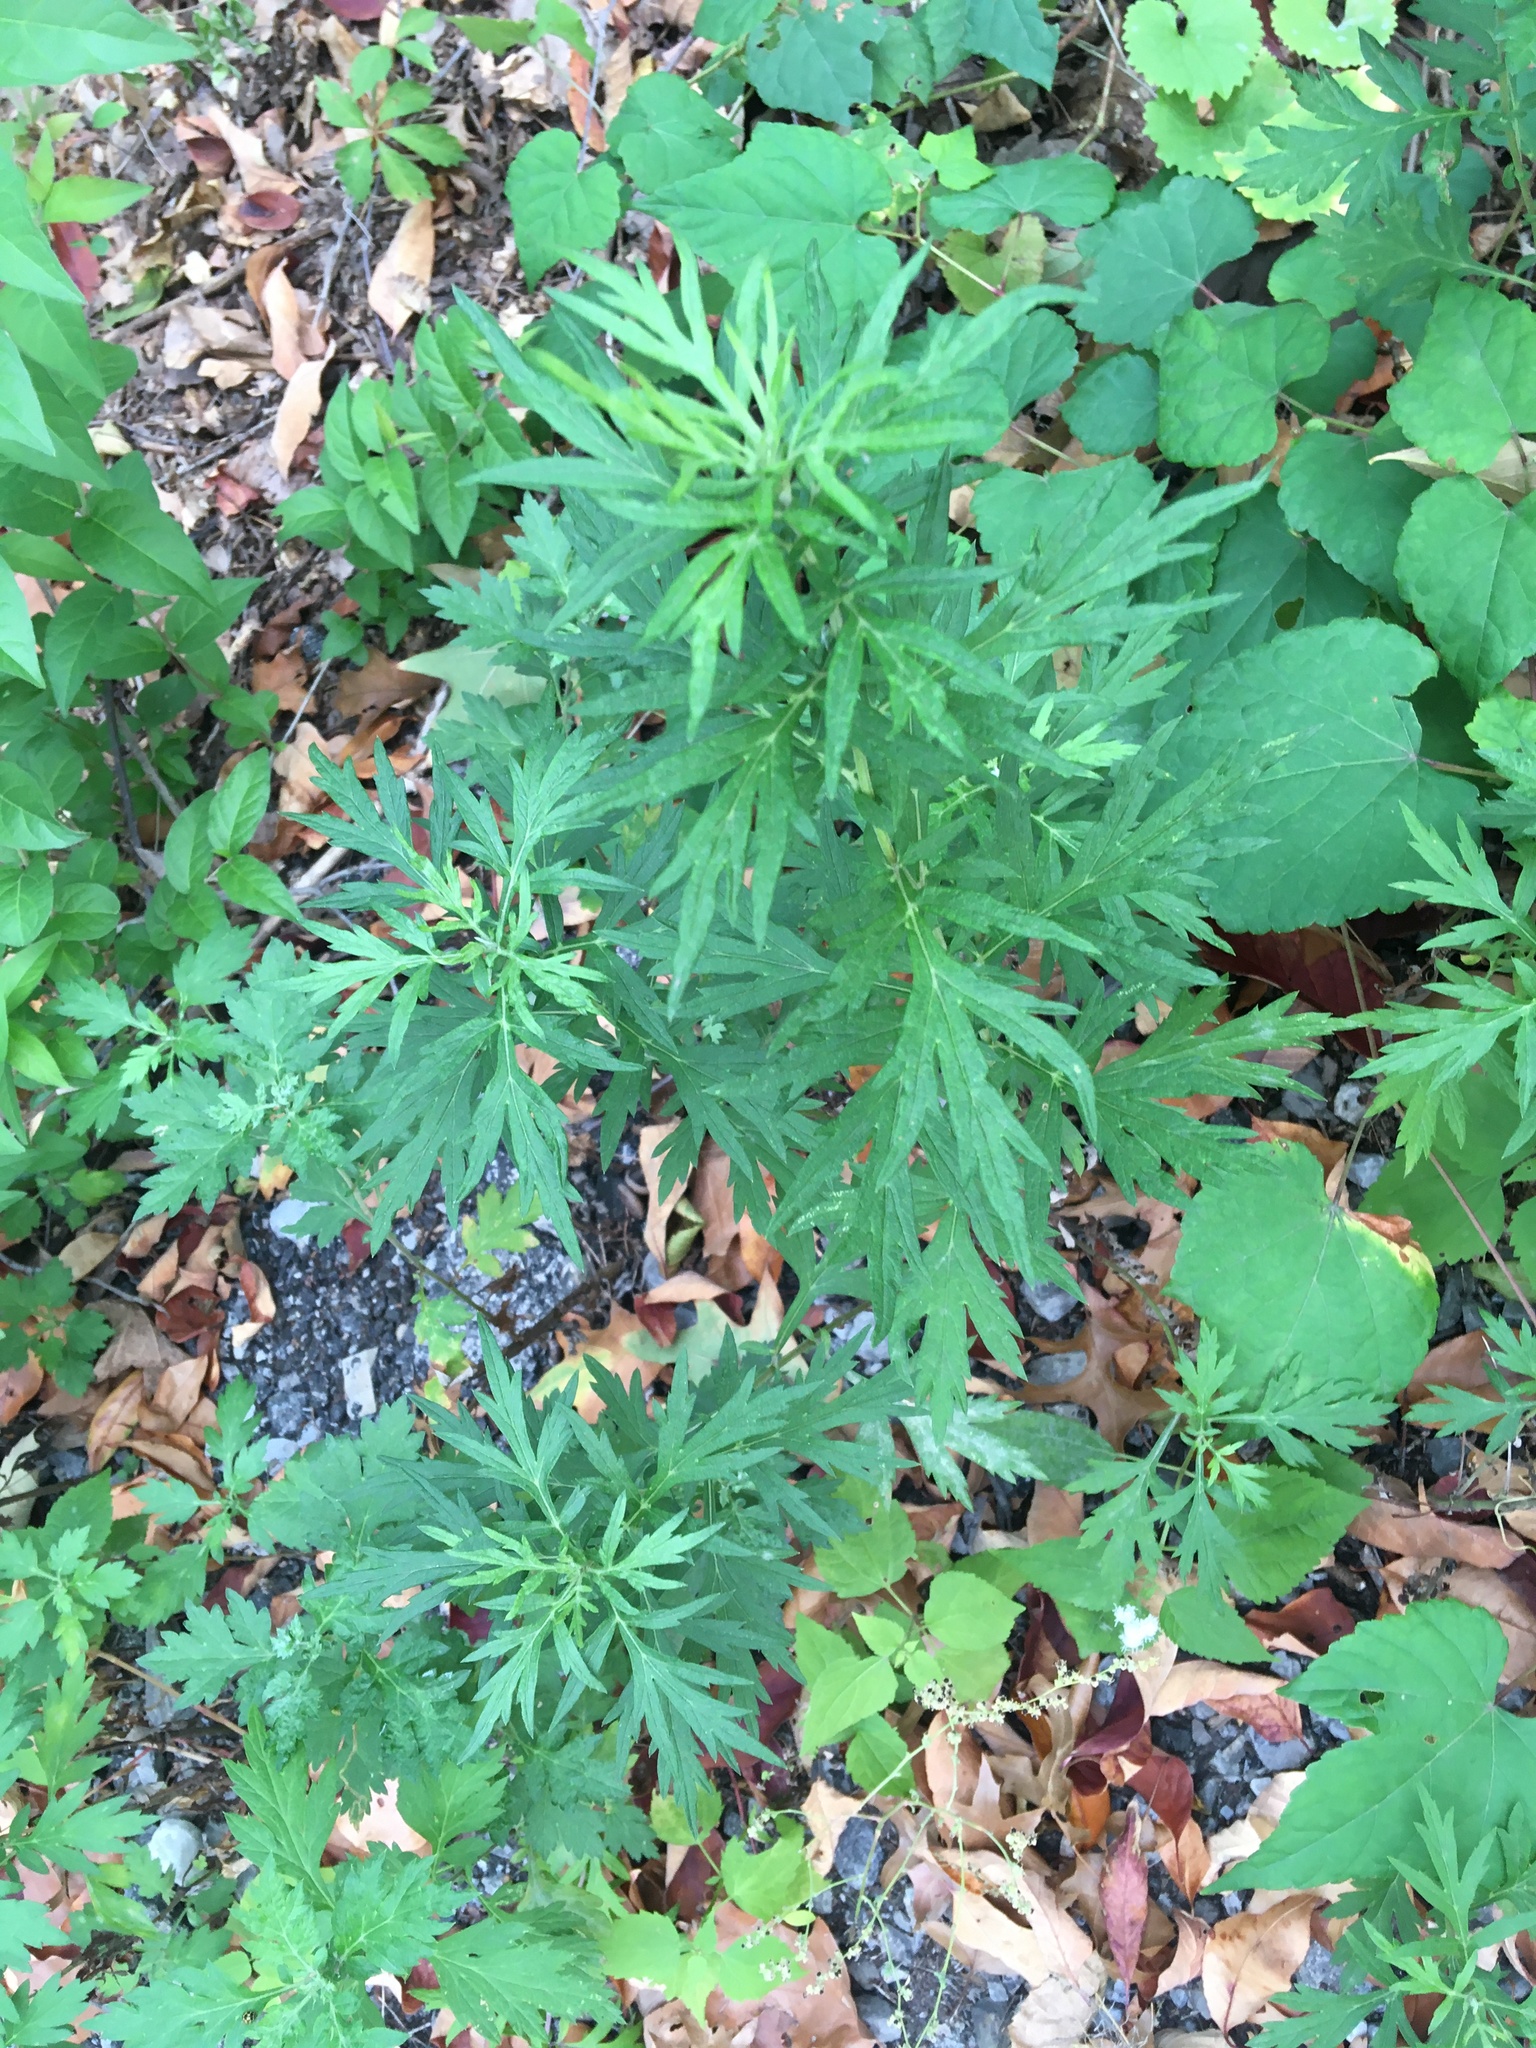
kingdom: Plantae
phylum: Tracheophyta
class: Magnoliopsida
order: Asterales
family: Asteraceae
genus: Artemisia
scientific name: Artemisia vulgaris
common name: Mugwort
